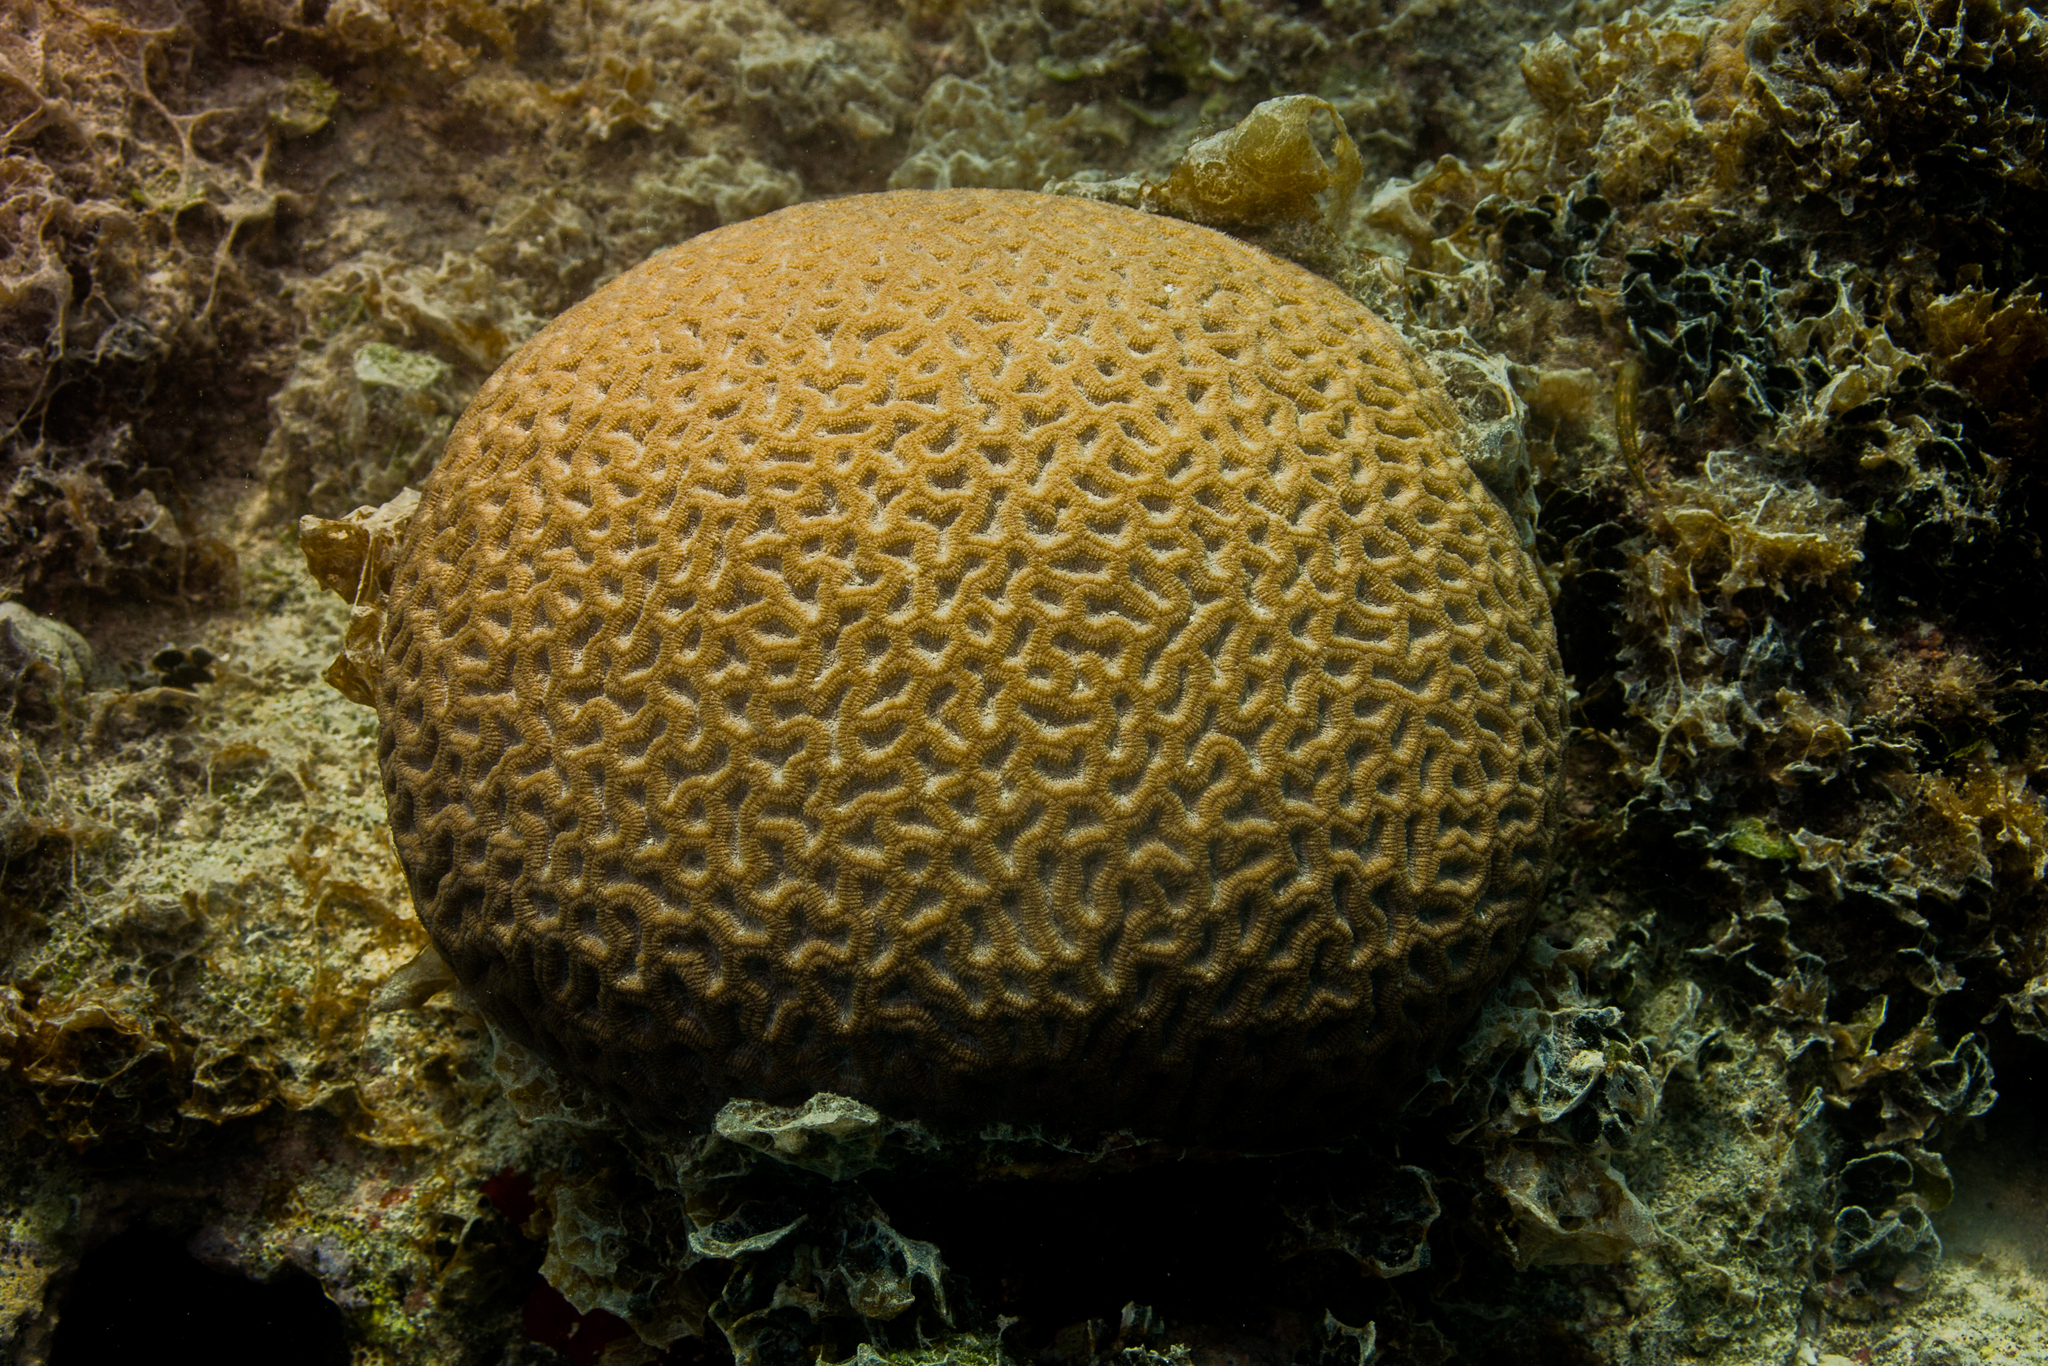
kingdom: Animalia
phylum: Cnidaria
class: Anthozoa
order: Scleractinia
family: Faviidae
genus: Mussismilia
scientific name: Mussismilia hispida
